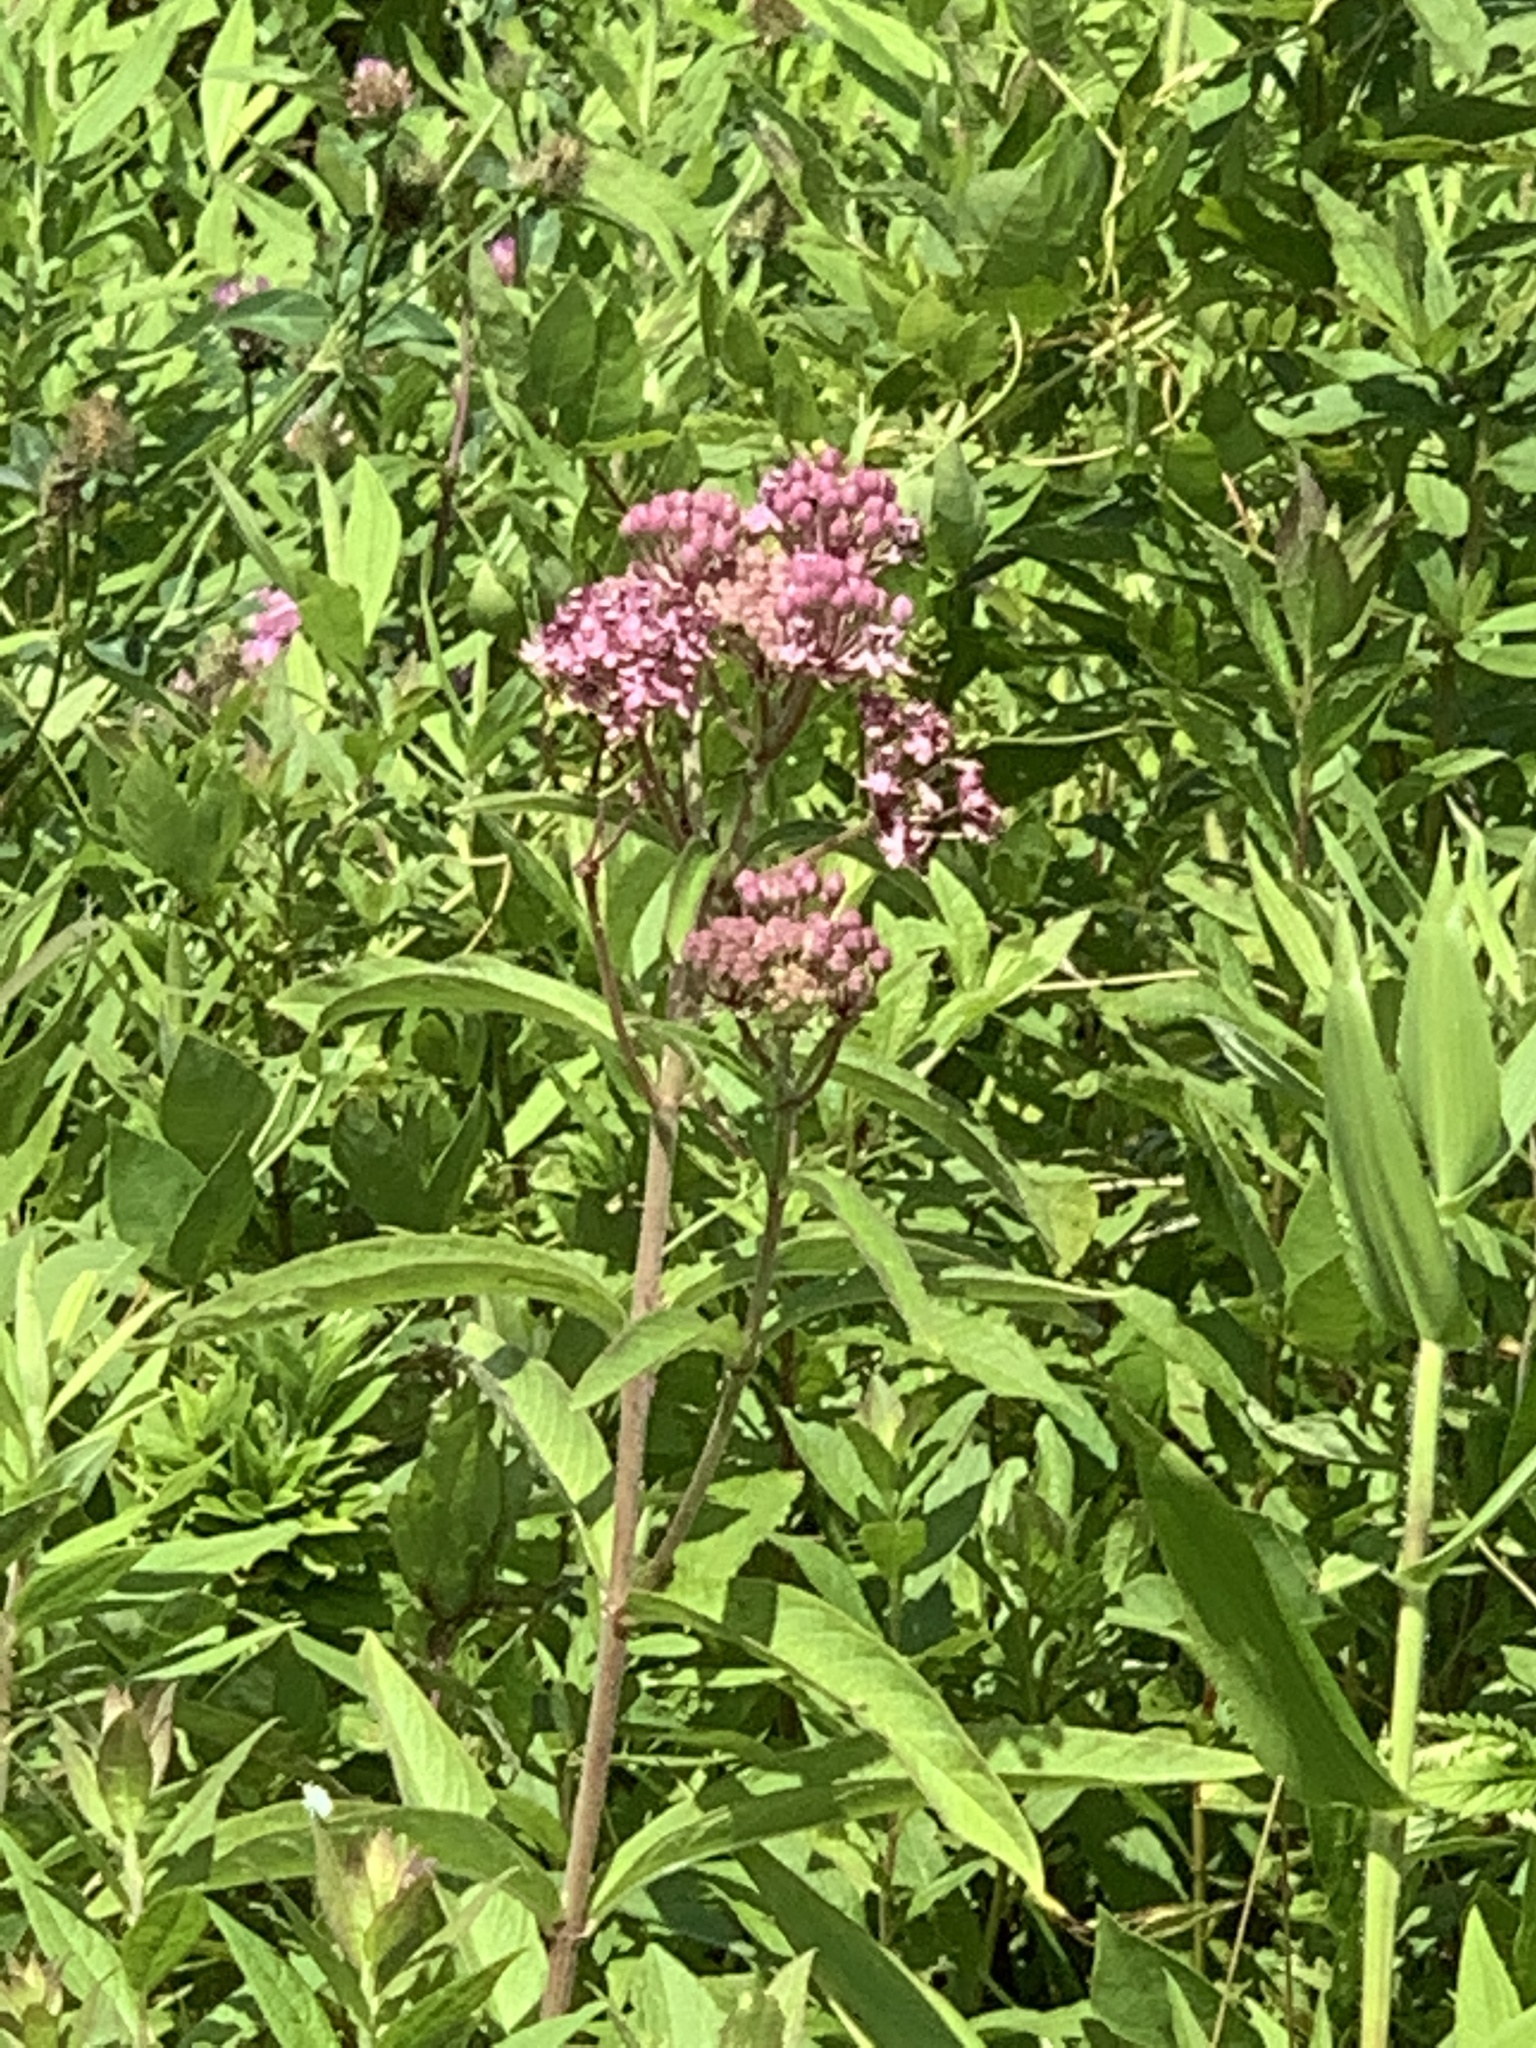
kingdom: Plantae
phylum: Tracheophyta
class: Magnoliopsida
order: Gentianales
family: Apocynaceae
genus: Asclepias
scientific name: Asclepias incarnata
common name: Swamp milkweed
